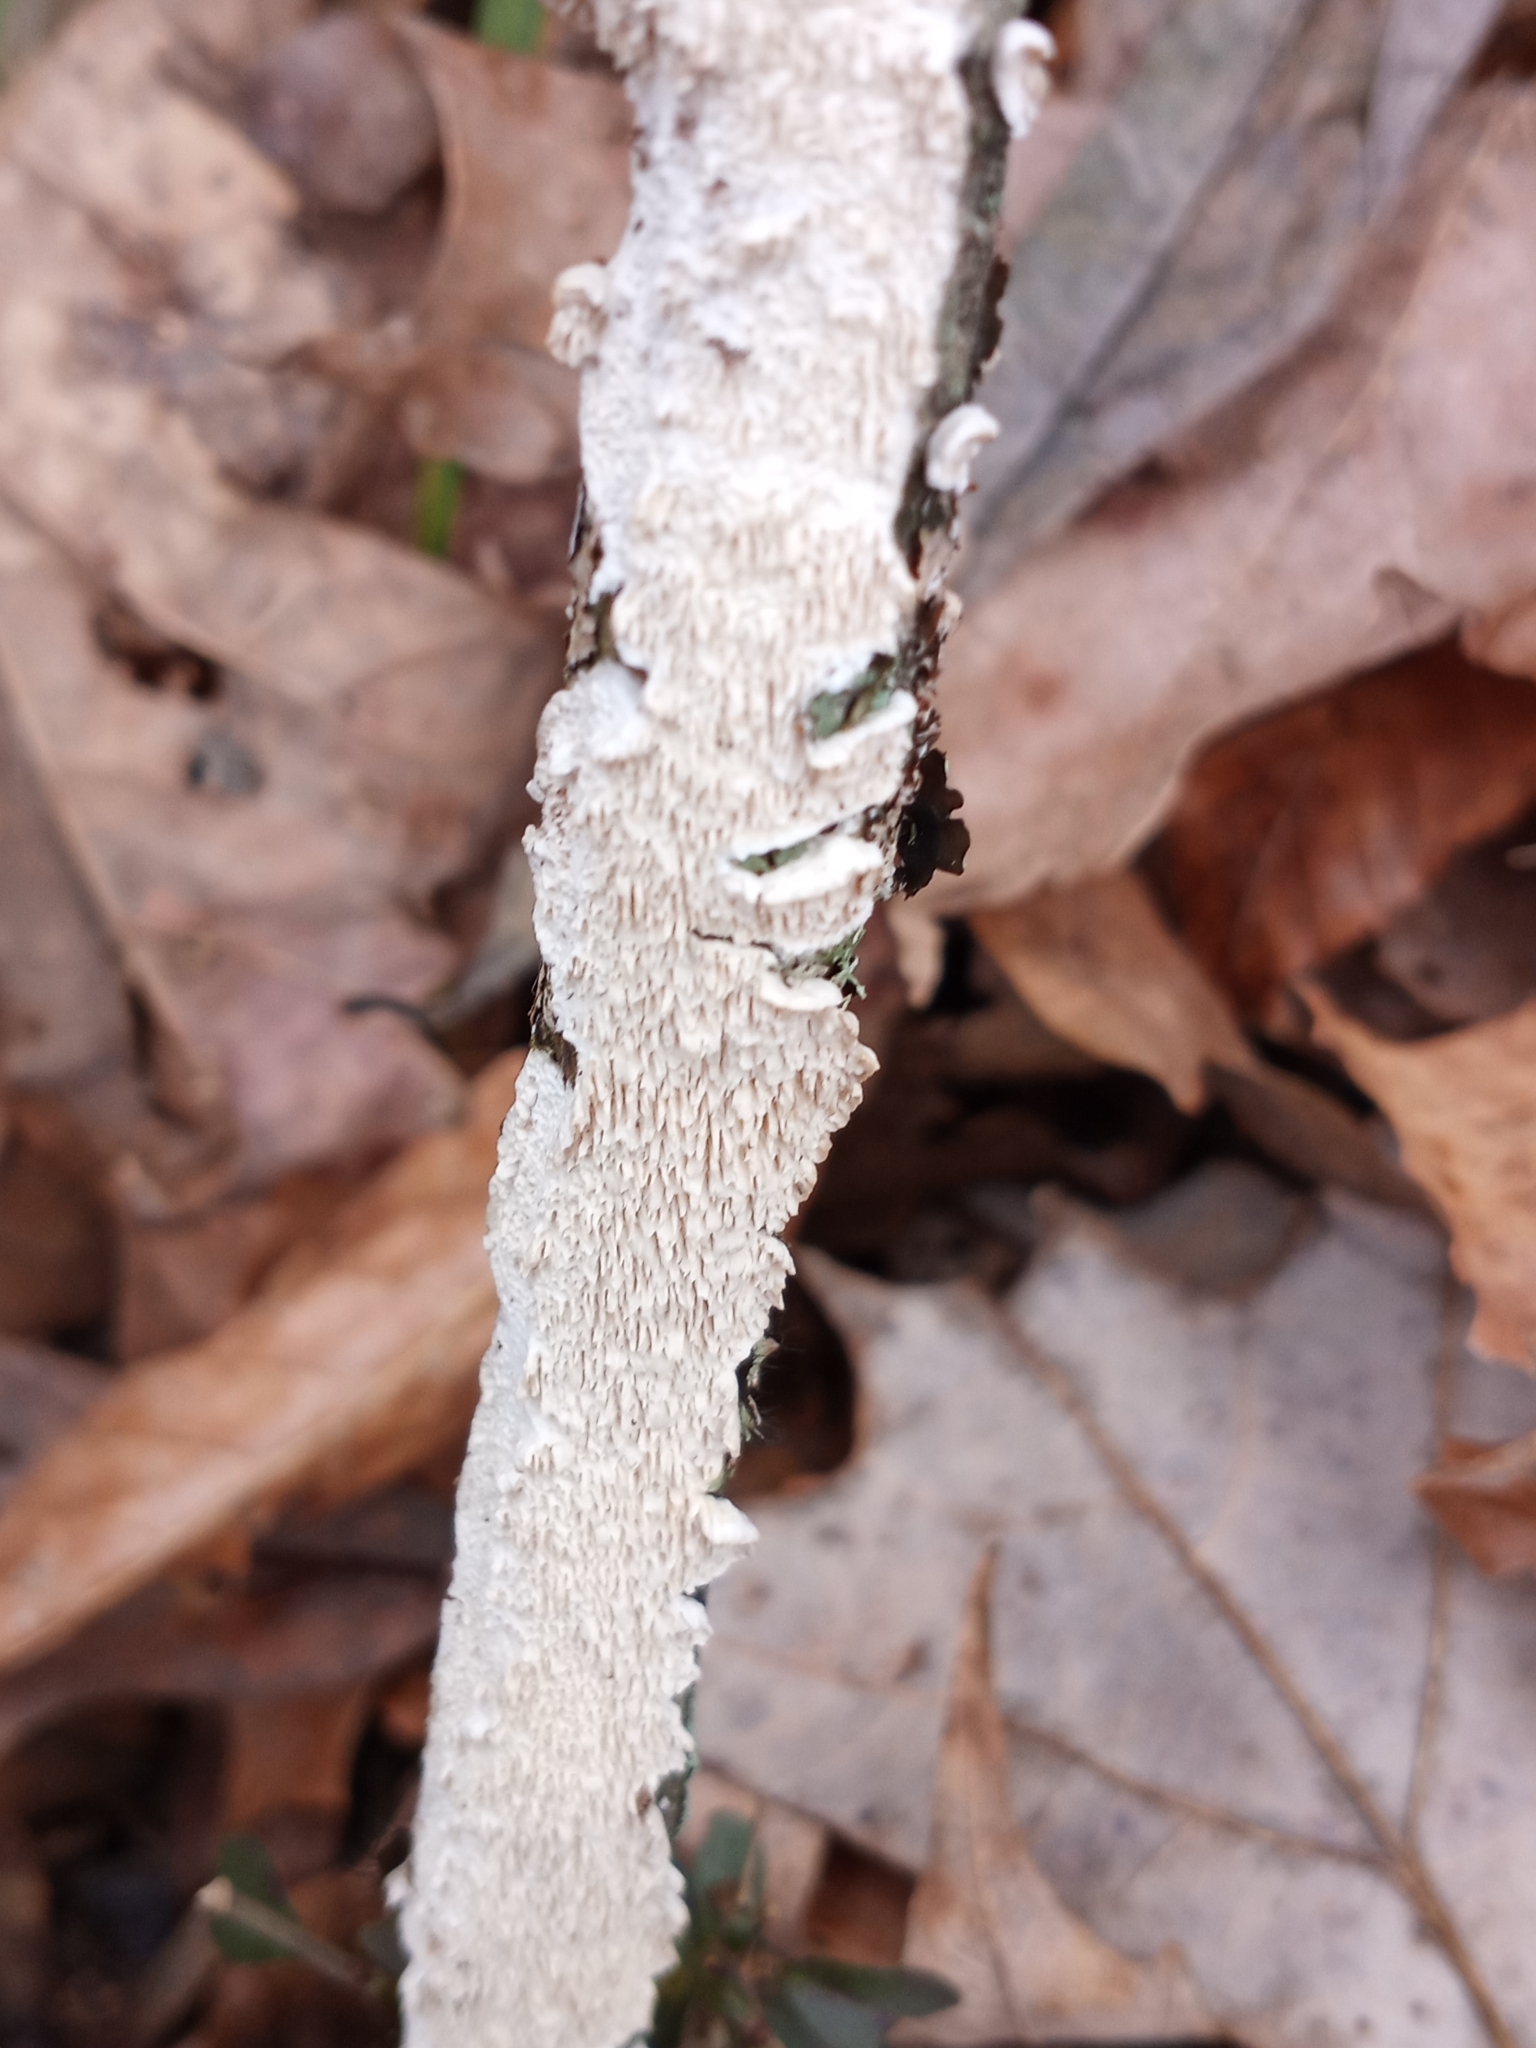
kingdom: Fungi
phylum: Basidiomycota
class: Agaricomycetes
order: Polyporales
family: Irpicaceae
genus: Irpex
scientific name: Irpex lacteus
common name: Milk-white toothed polypore
